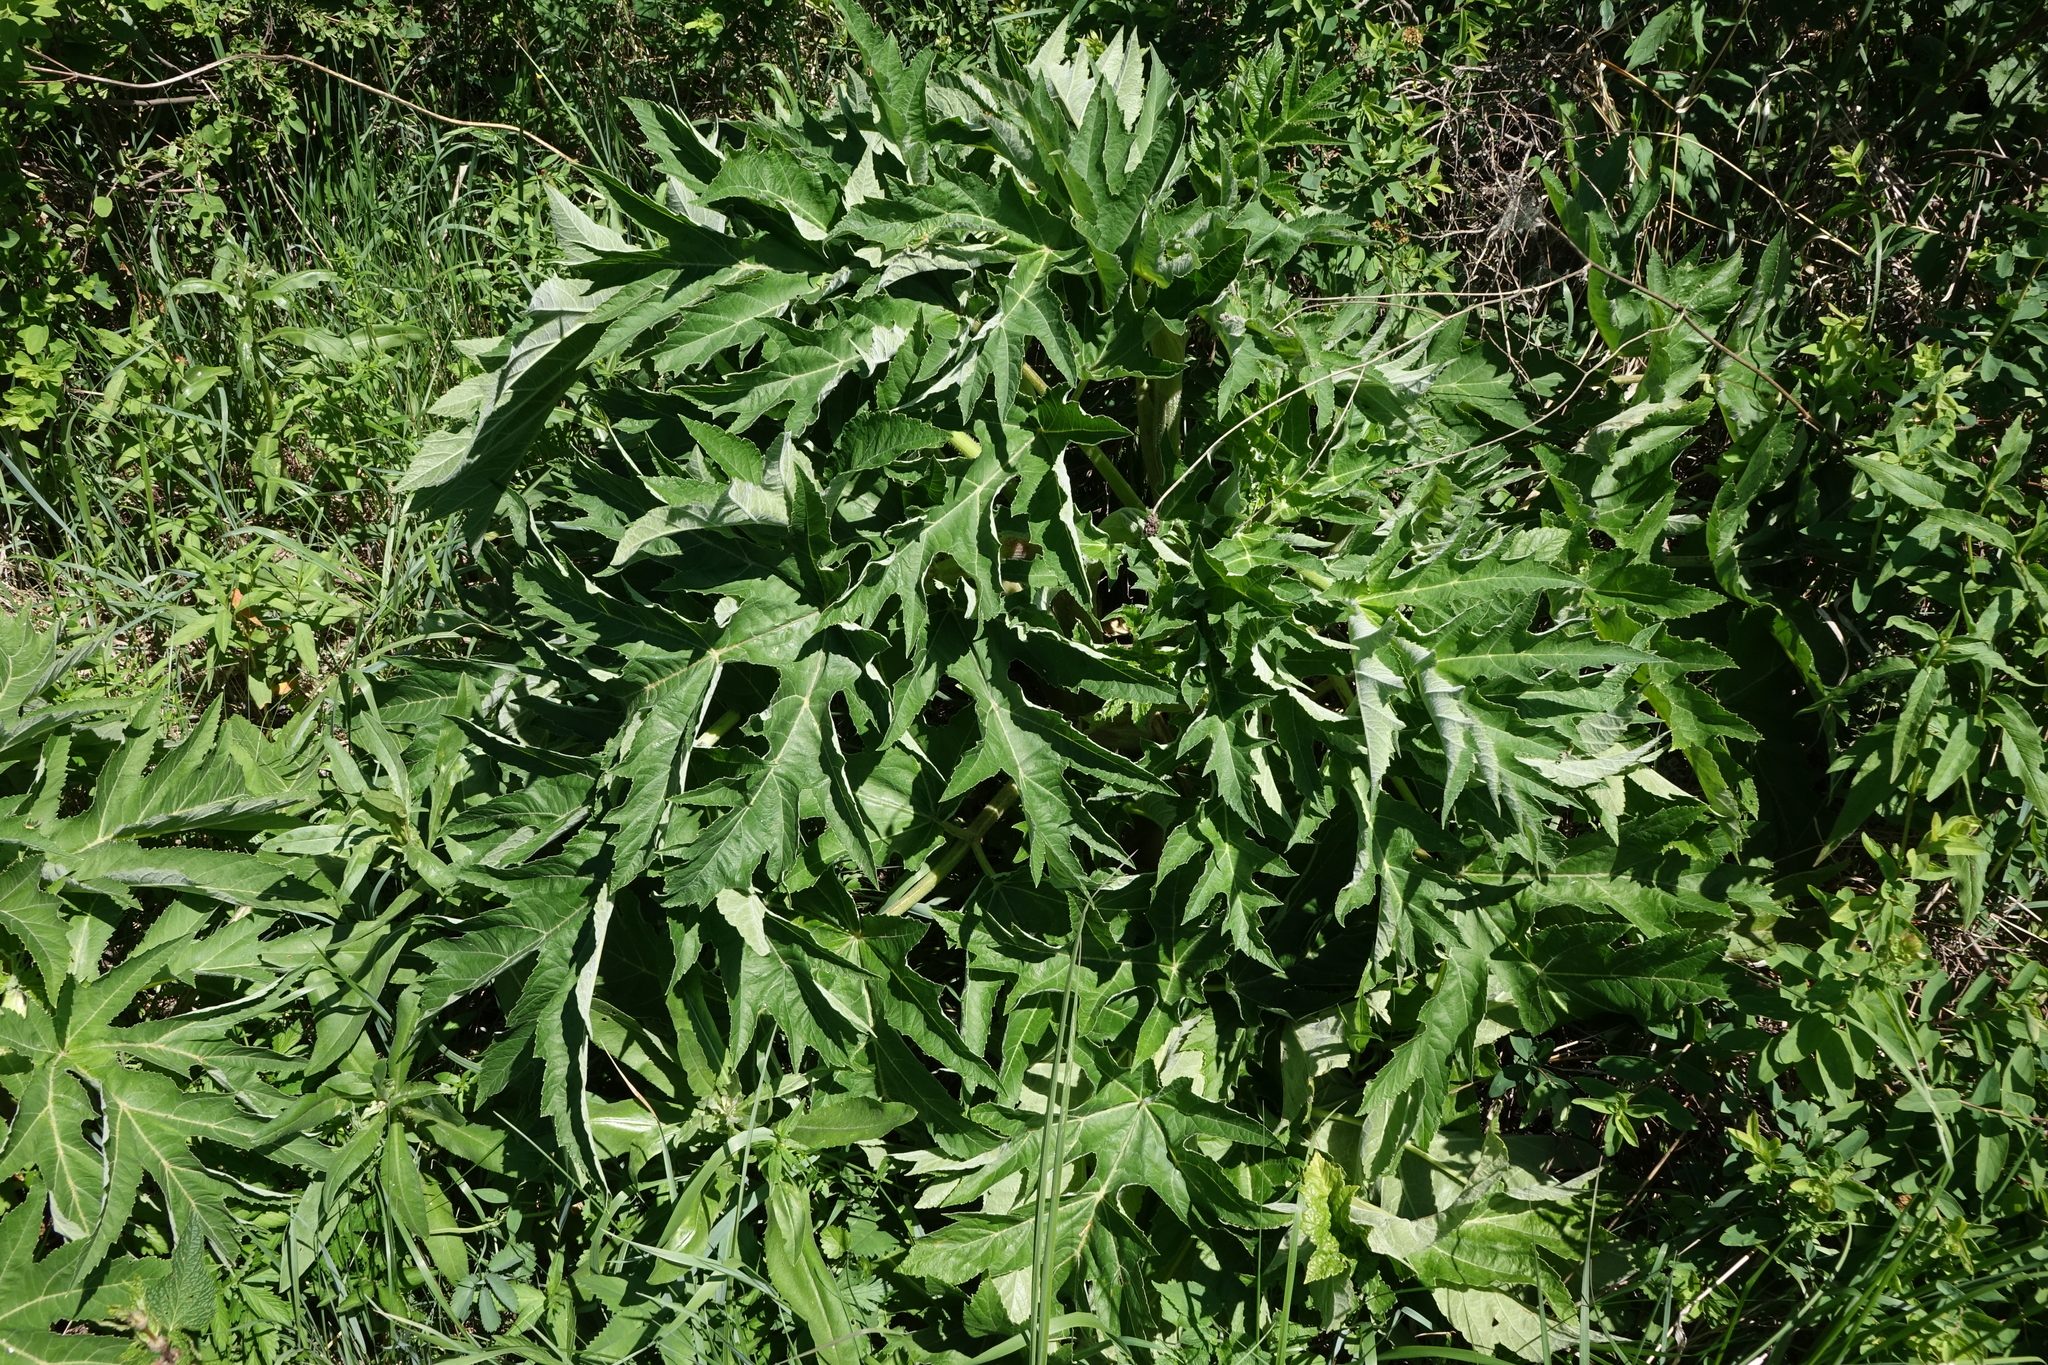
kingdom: Plantae
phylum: Tracheophyta
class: Magnoliopsida
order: Apiales
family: Apiaceae
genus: Heracleum
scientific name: Heracleum sphondylium
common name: Hogweed
